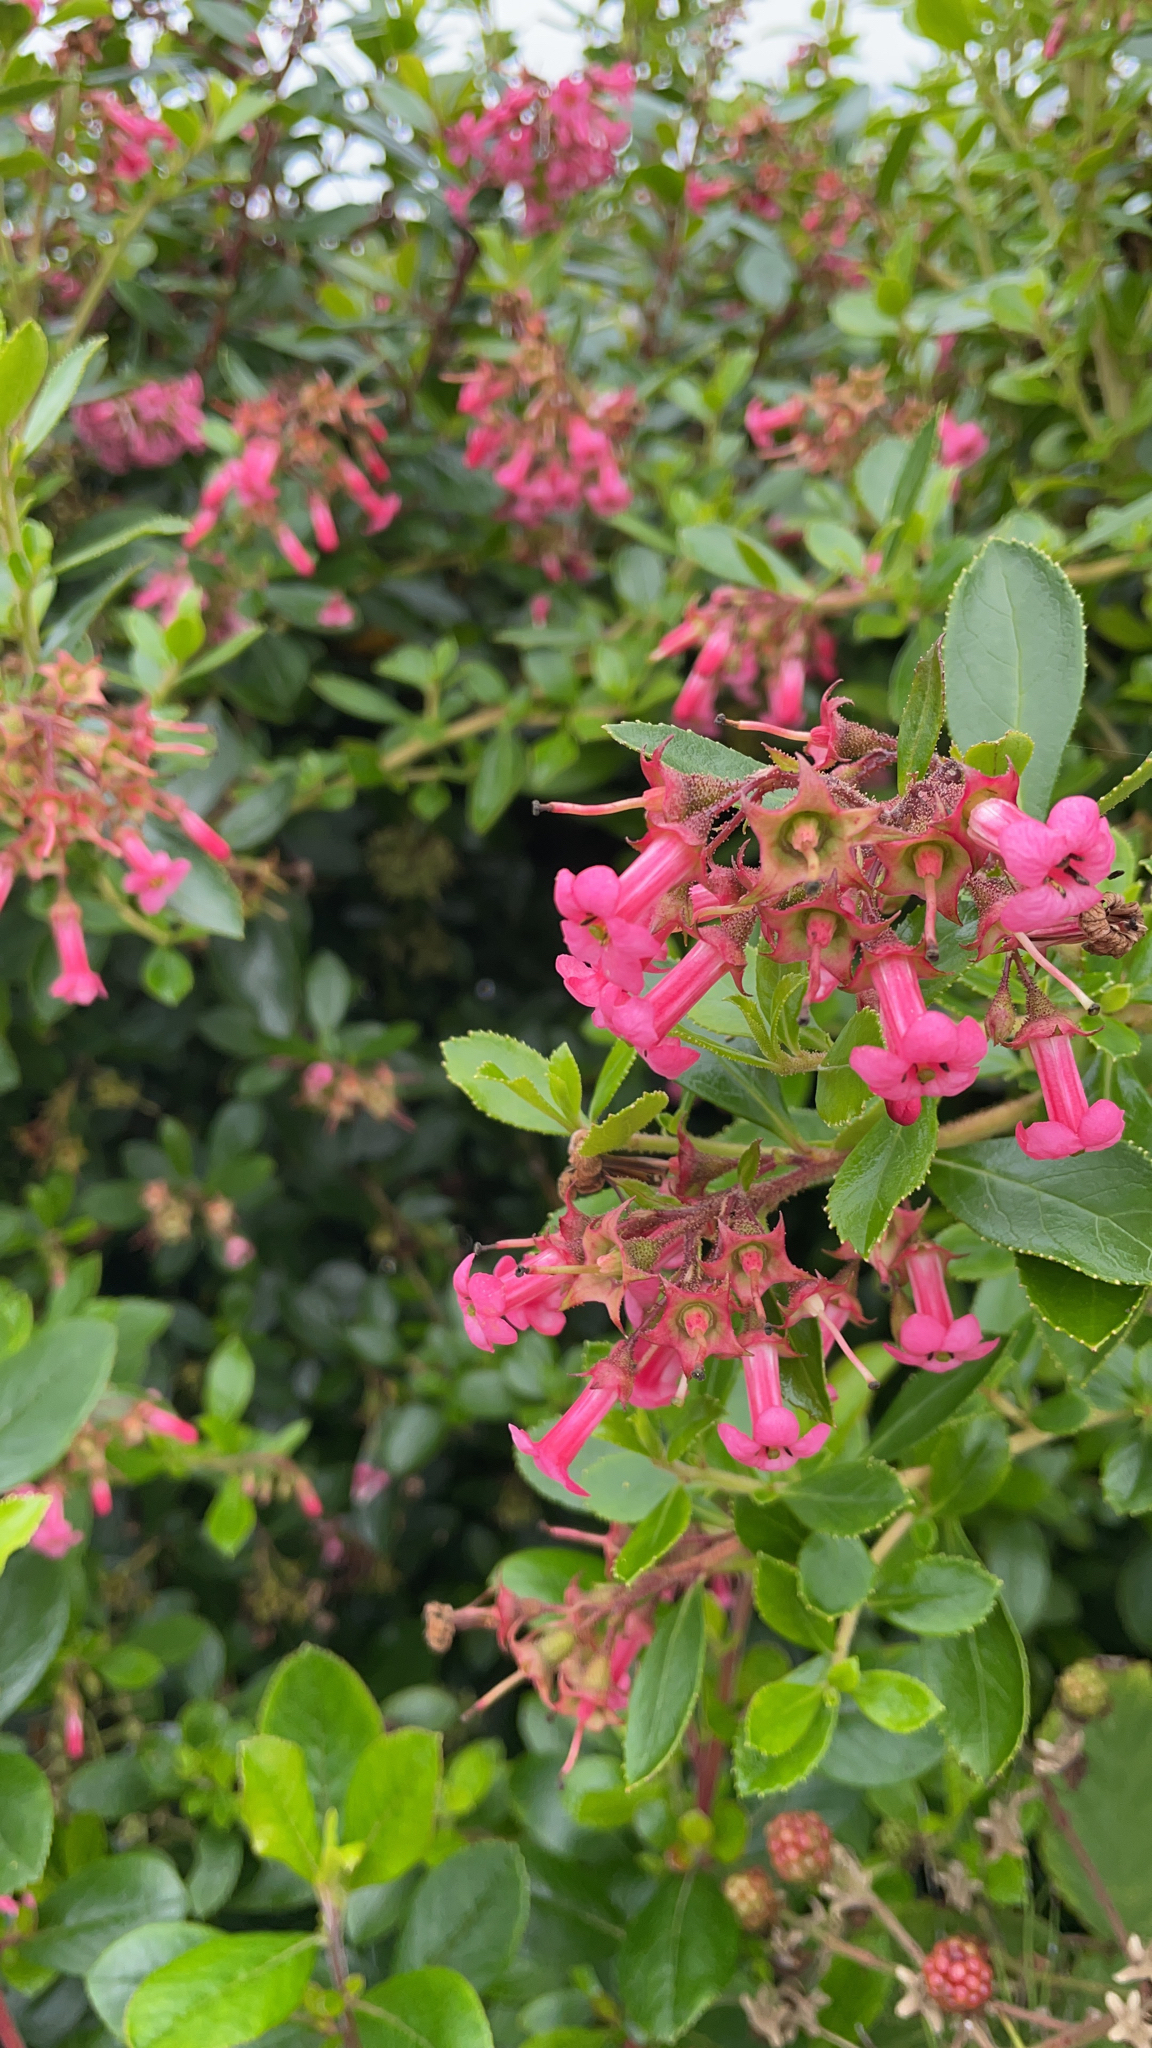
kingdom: Plantae
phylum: Tracheophyta
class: Magnoliopsida
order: Escalloniales
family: Escalloniaceae
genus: Escallonia
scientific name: Escallonia rubra
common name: Redclaws
